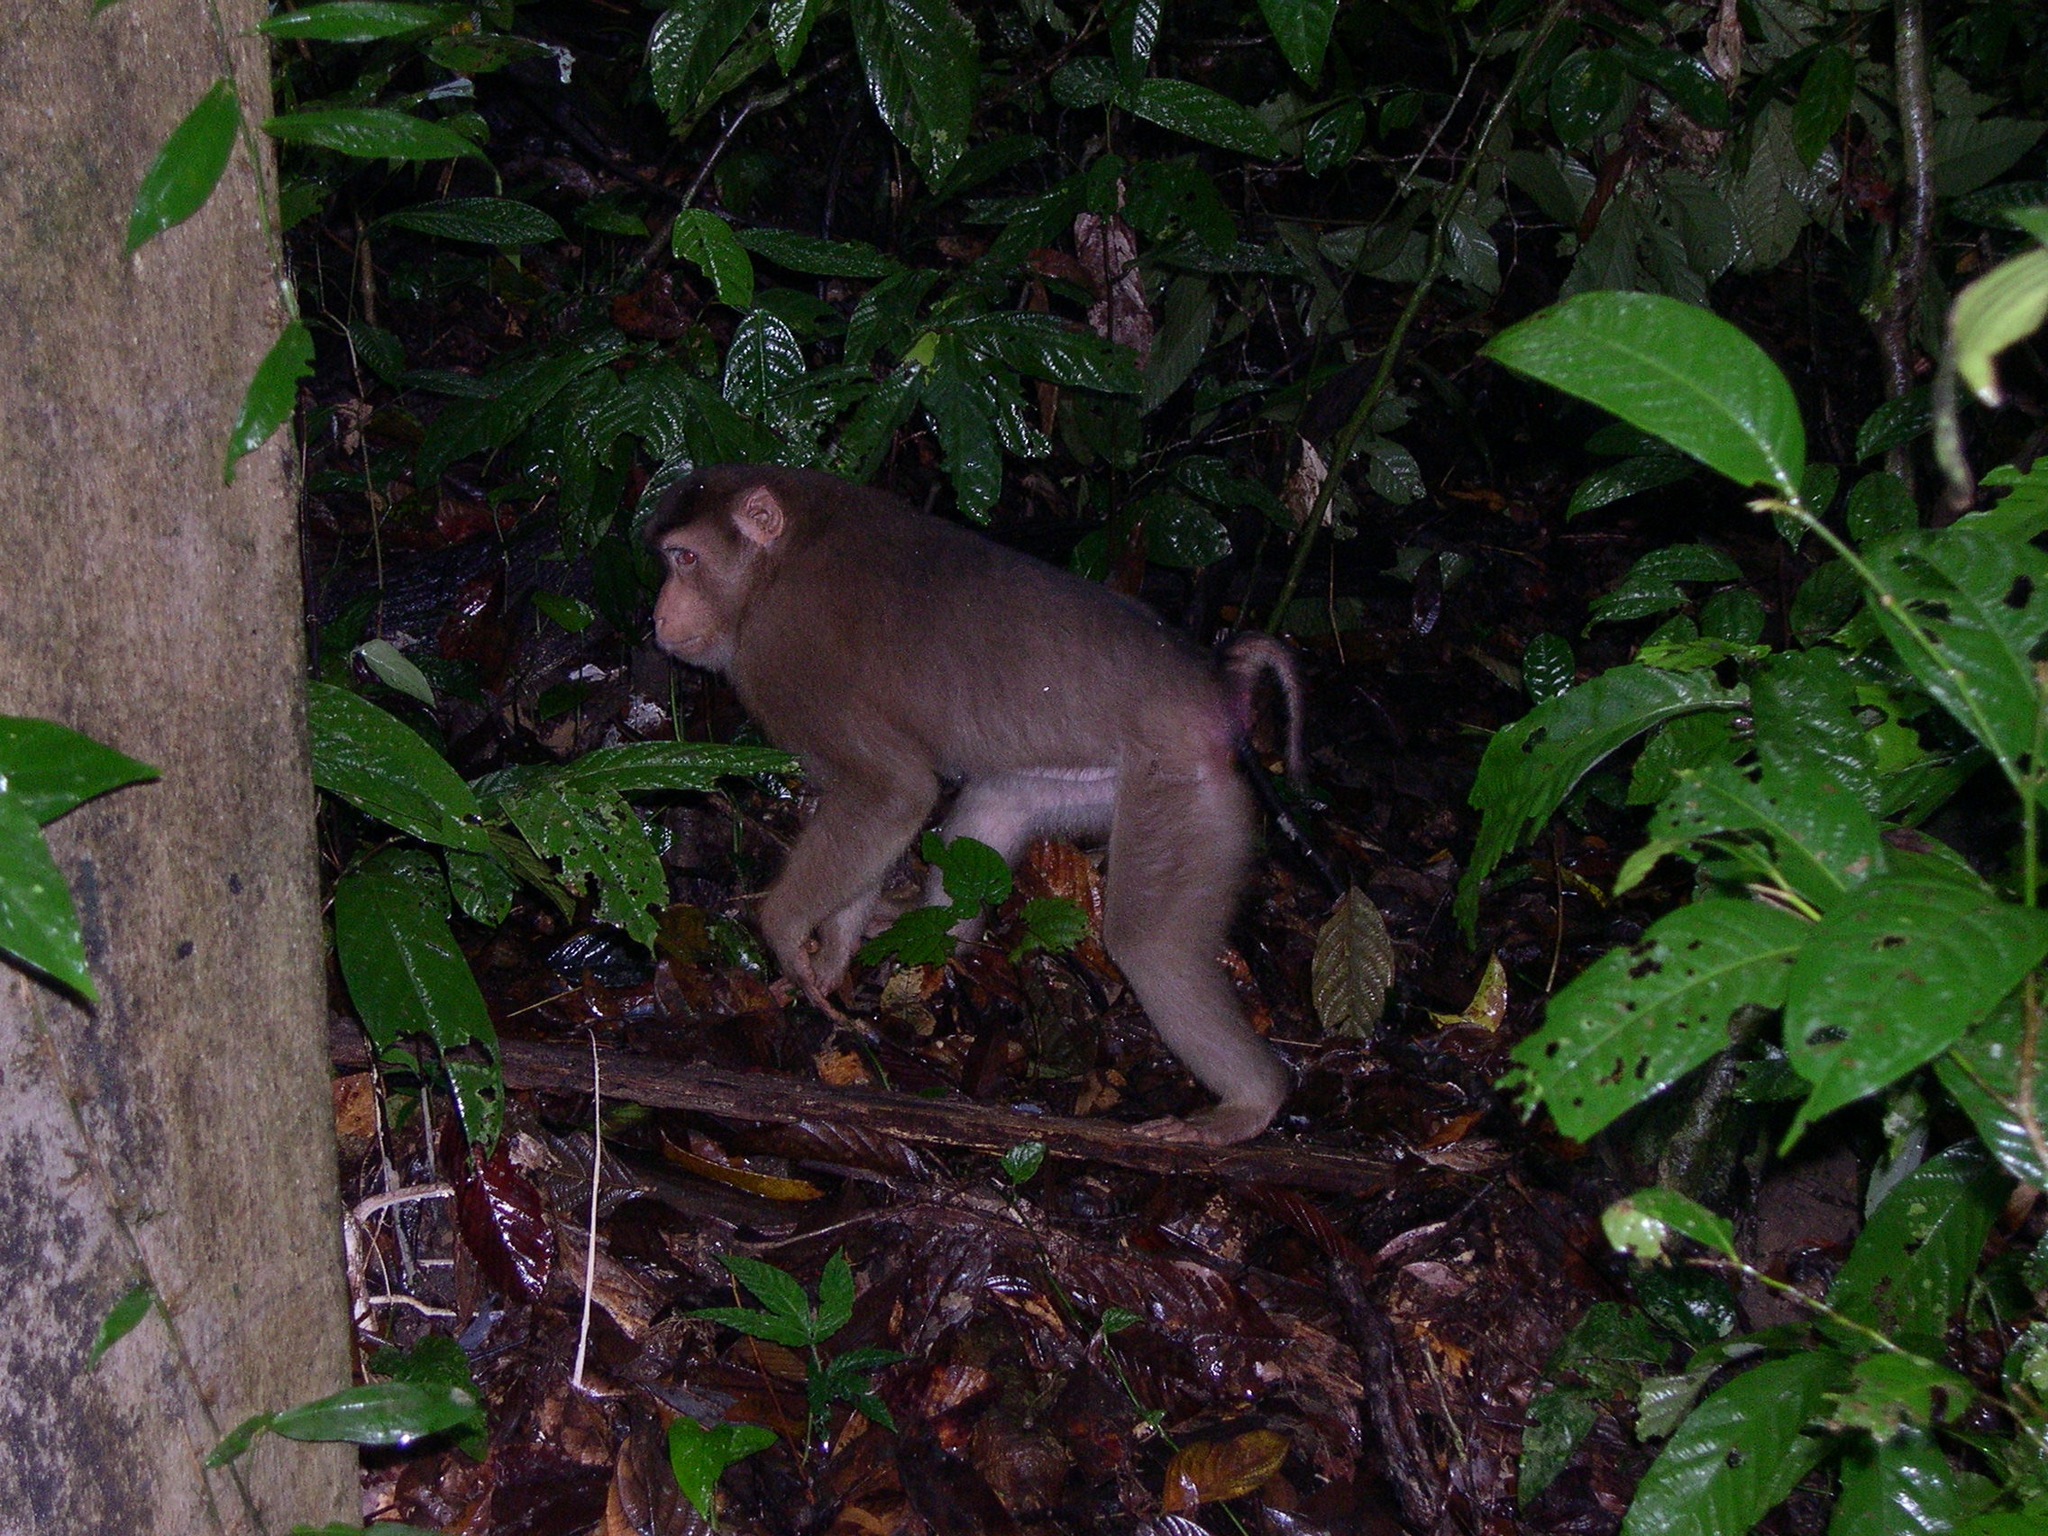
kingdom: Animalia
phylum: Chordata
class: Mammalia
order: Primates
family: Cercopithecidae
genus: Macaca
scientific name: Macaca nemestrina
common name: Southern pig-tailed macaque
